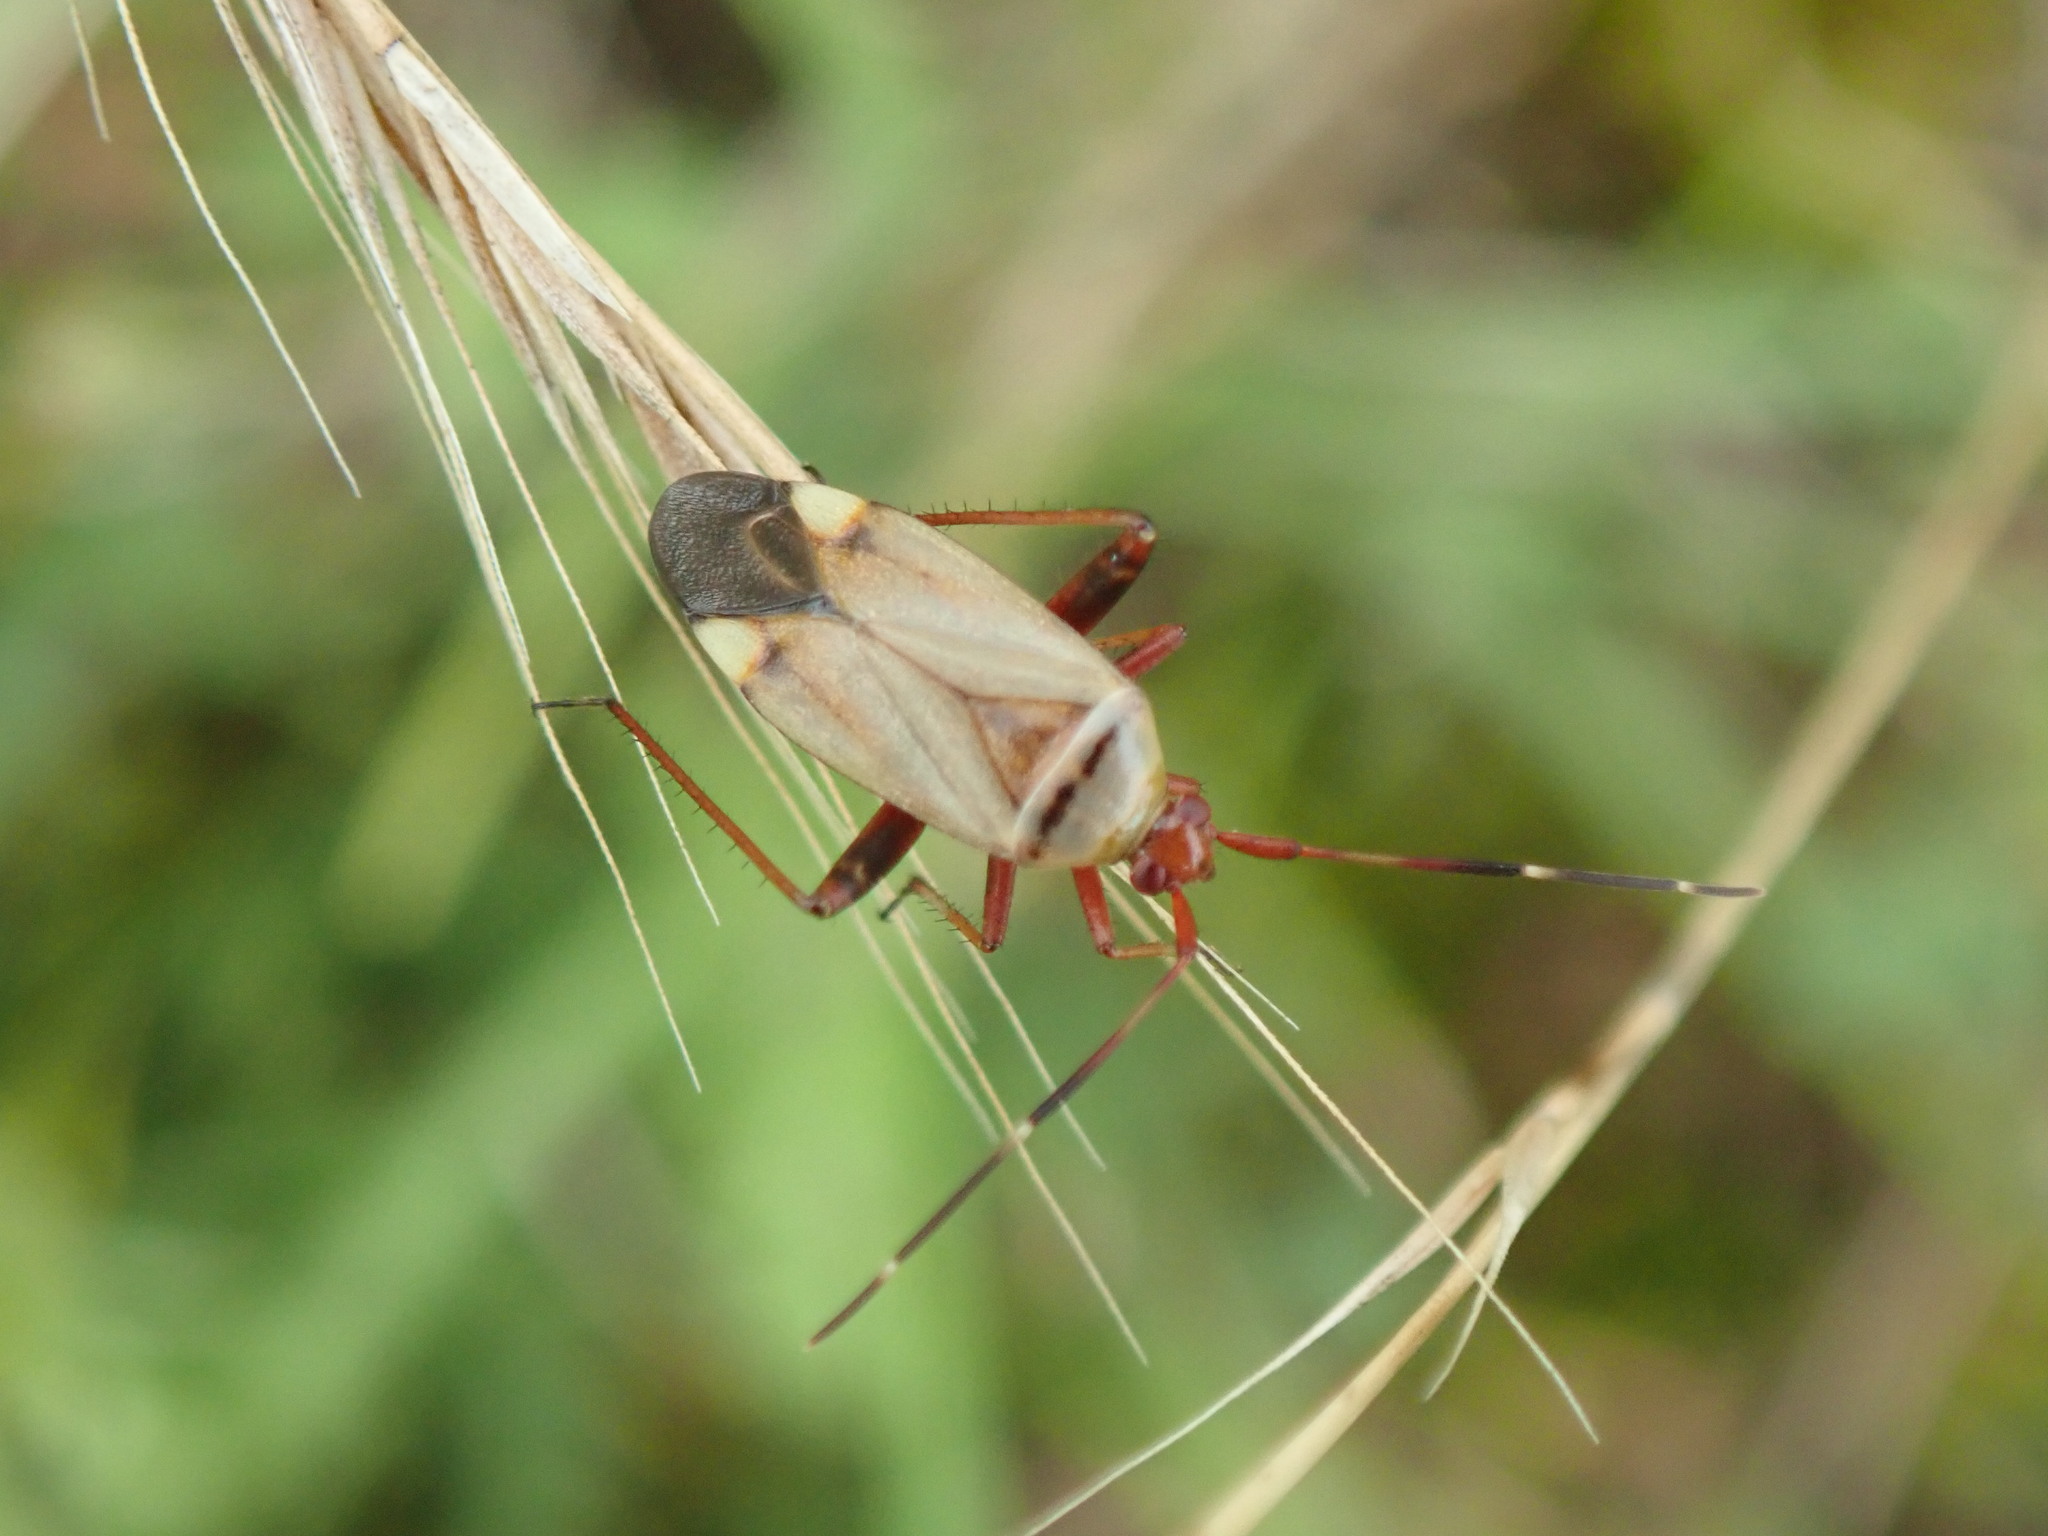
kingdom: Animalia
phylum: Arthropoda
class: Insecta
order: Hemiptera
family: Miridae
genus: Adelphocoris
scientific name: Adelphocoris vandalicus
